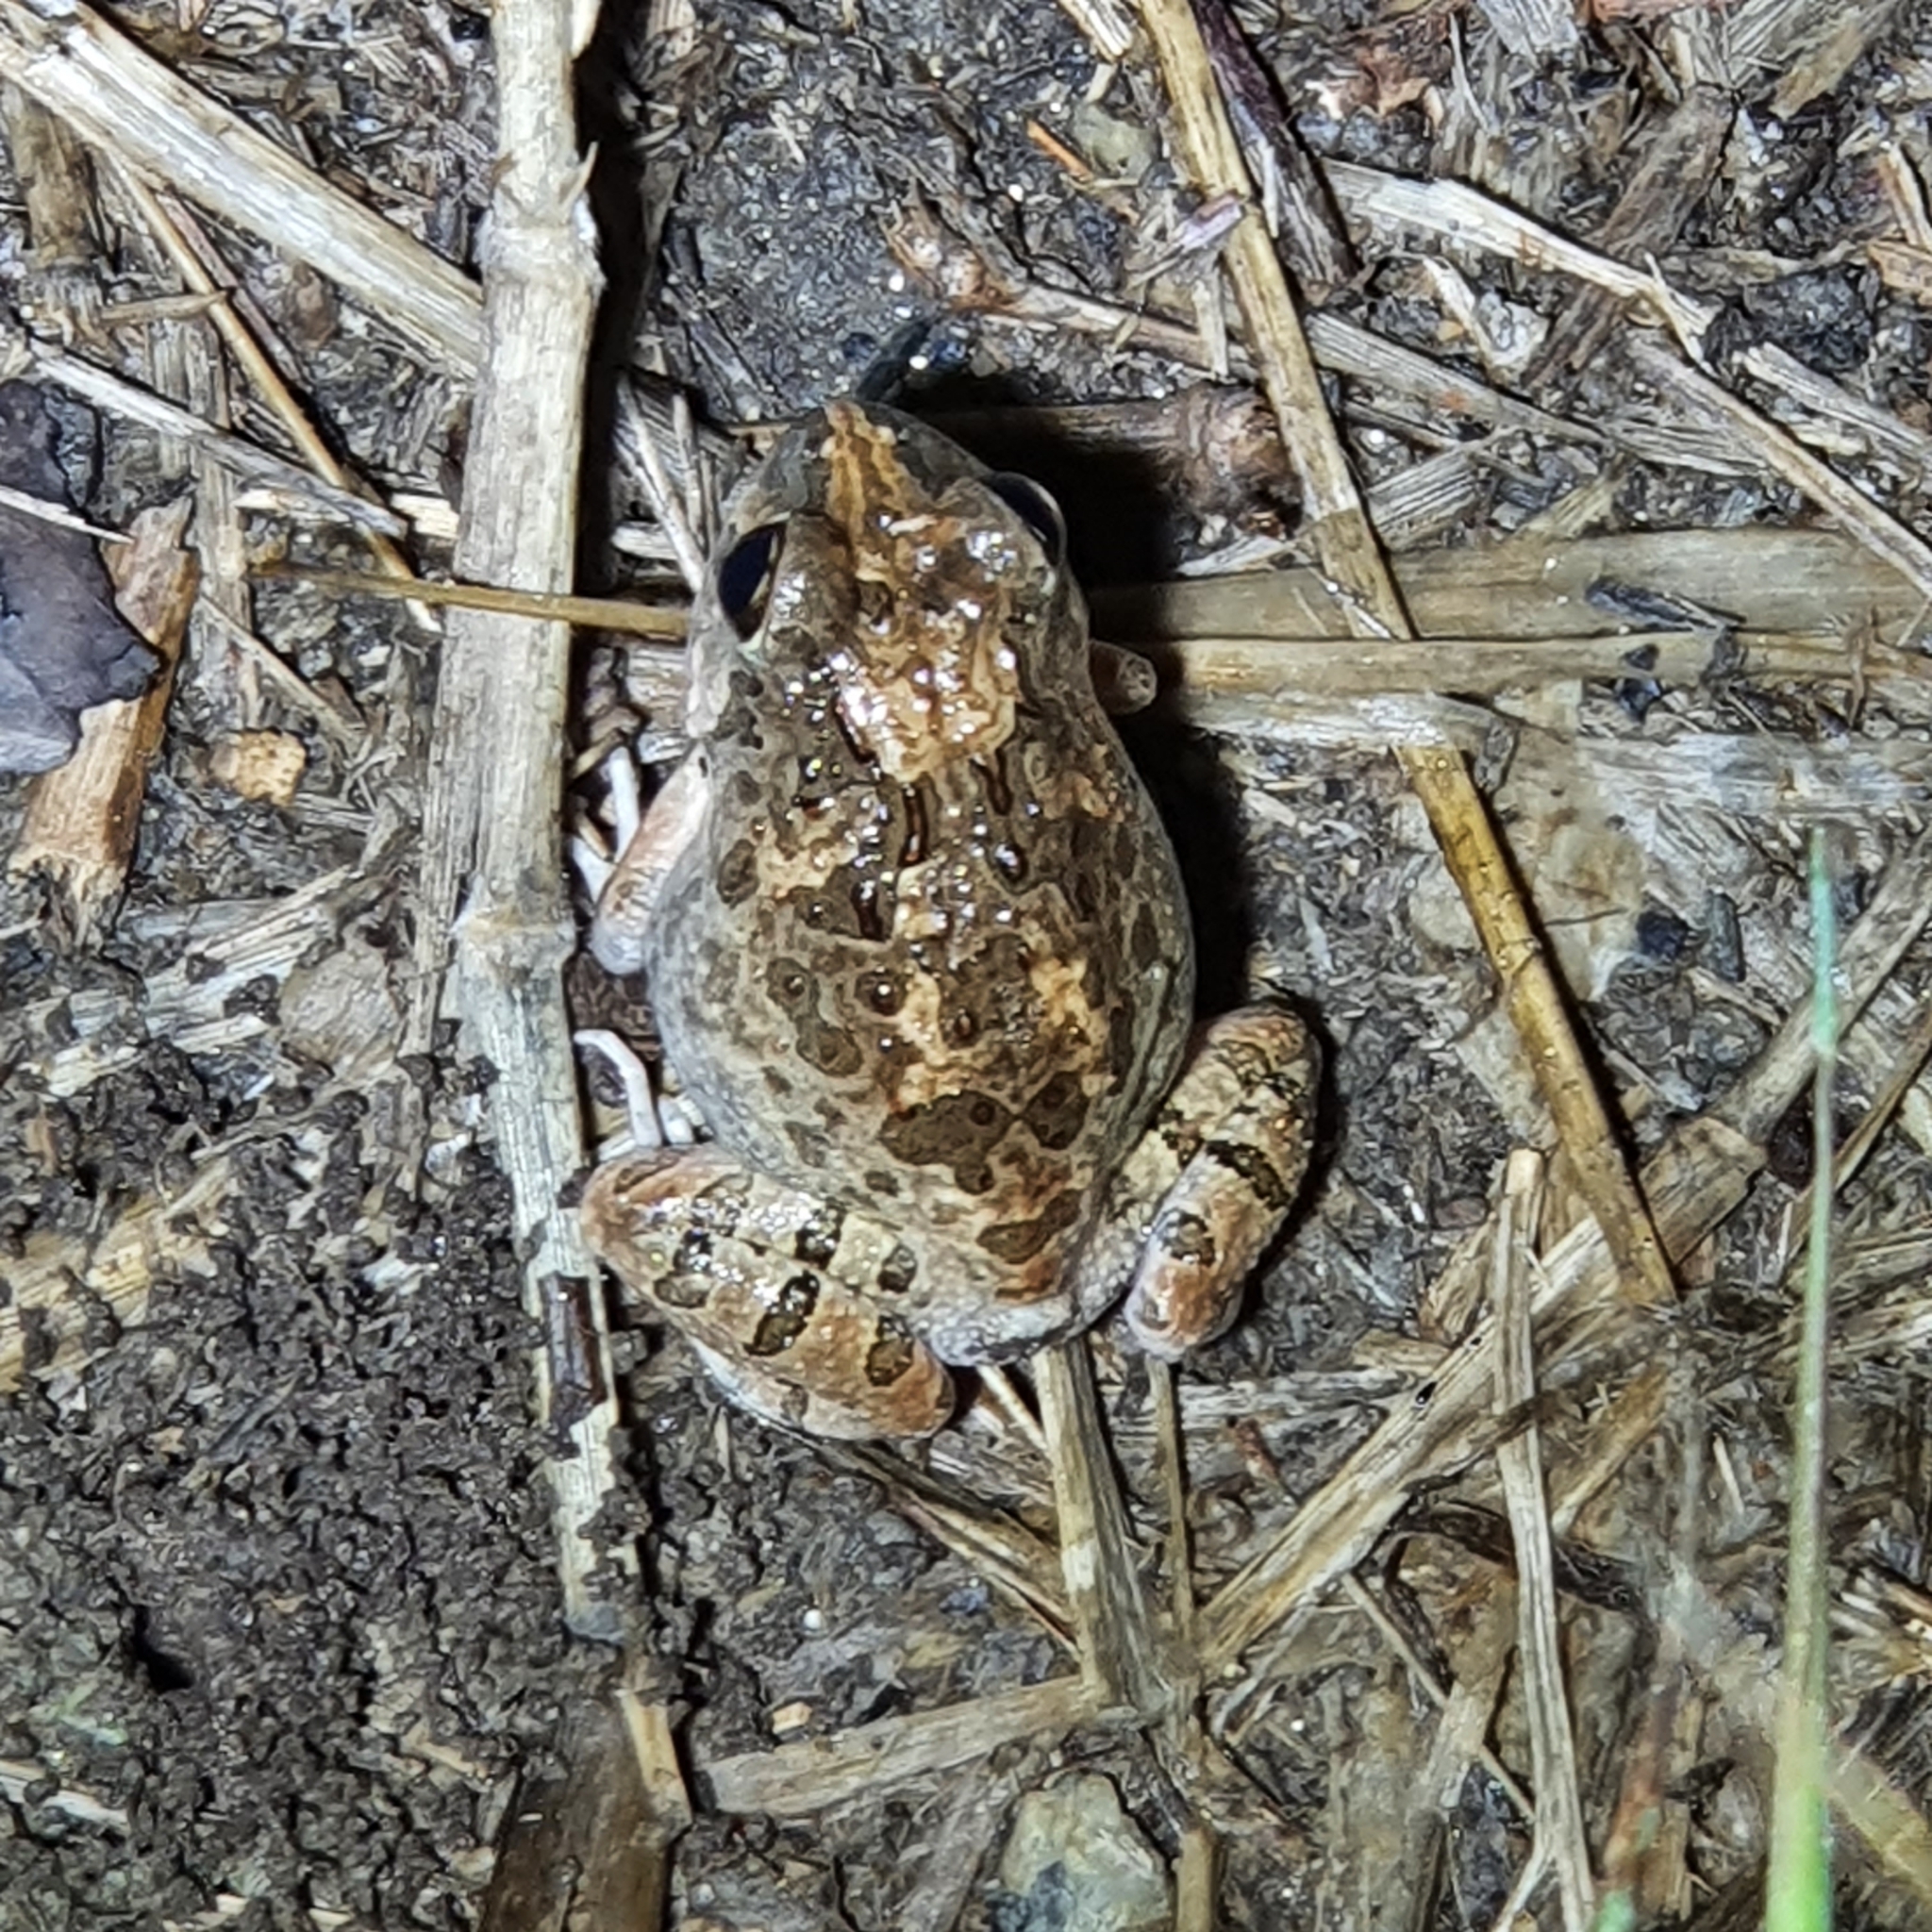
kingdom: Animalia
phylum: Chordata
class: Amphibia
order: Anura
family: Limnodynastidae
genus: Platyplectrum
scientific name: Platyplectrum ornatum
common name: Ornate burrowing frog
